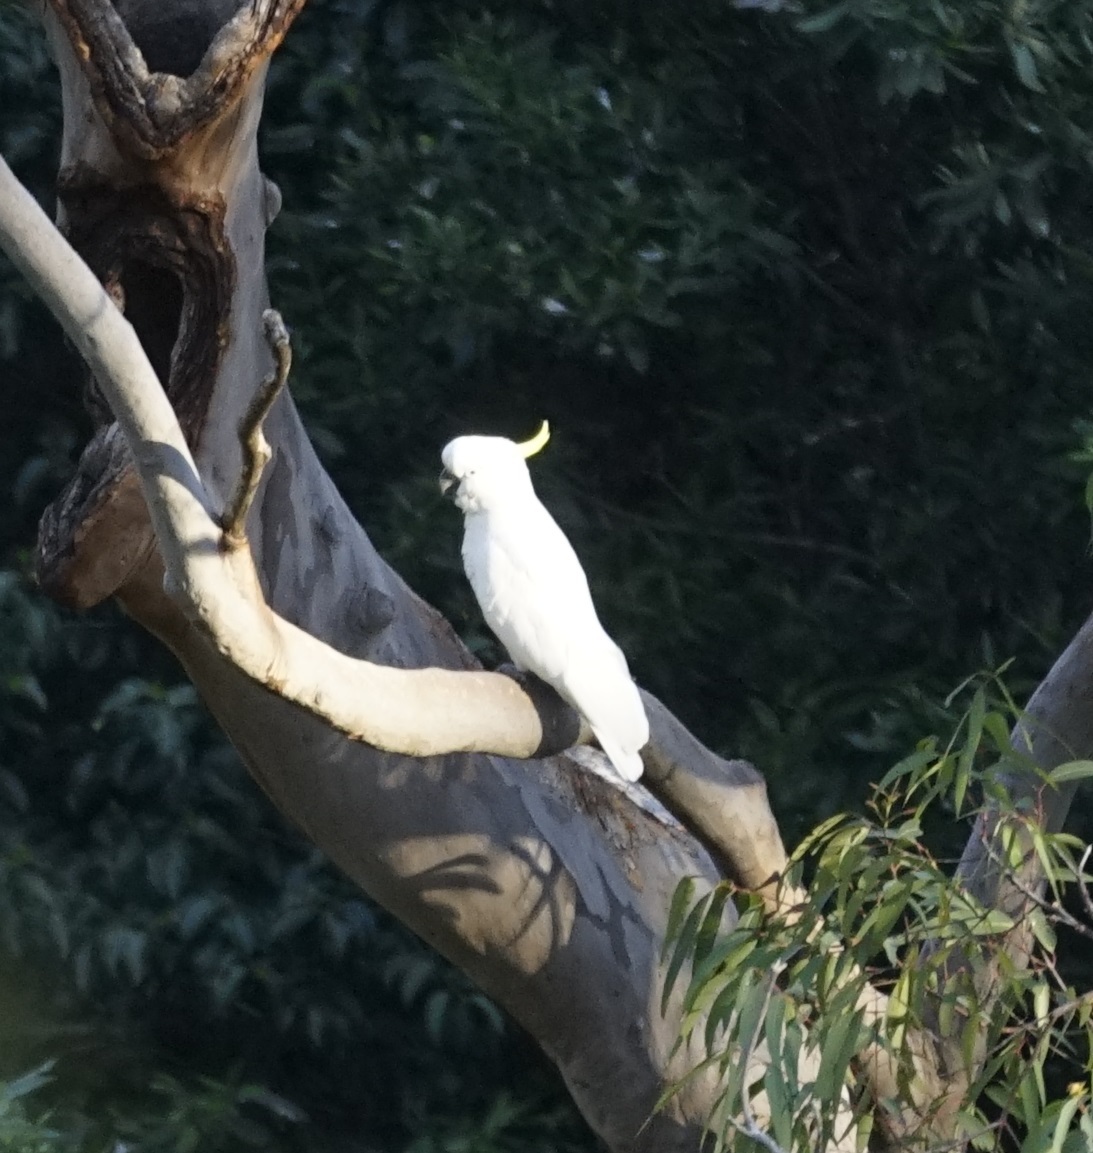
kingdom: Animalia
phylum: Chordata
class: Aves
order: Psittaciformes
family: Psittacidae
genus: Cacatua
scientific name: Cacatua galerita
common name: Sulphur-crested cockatoo
